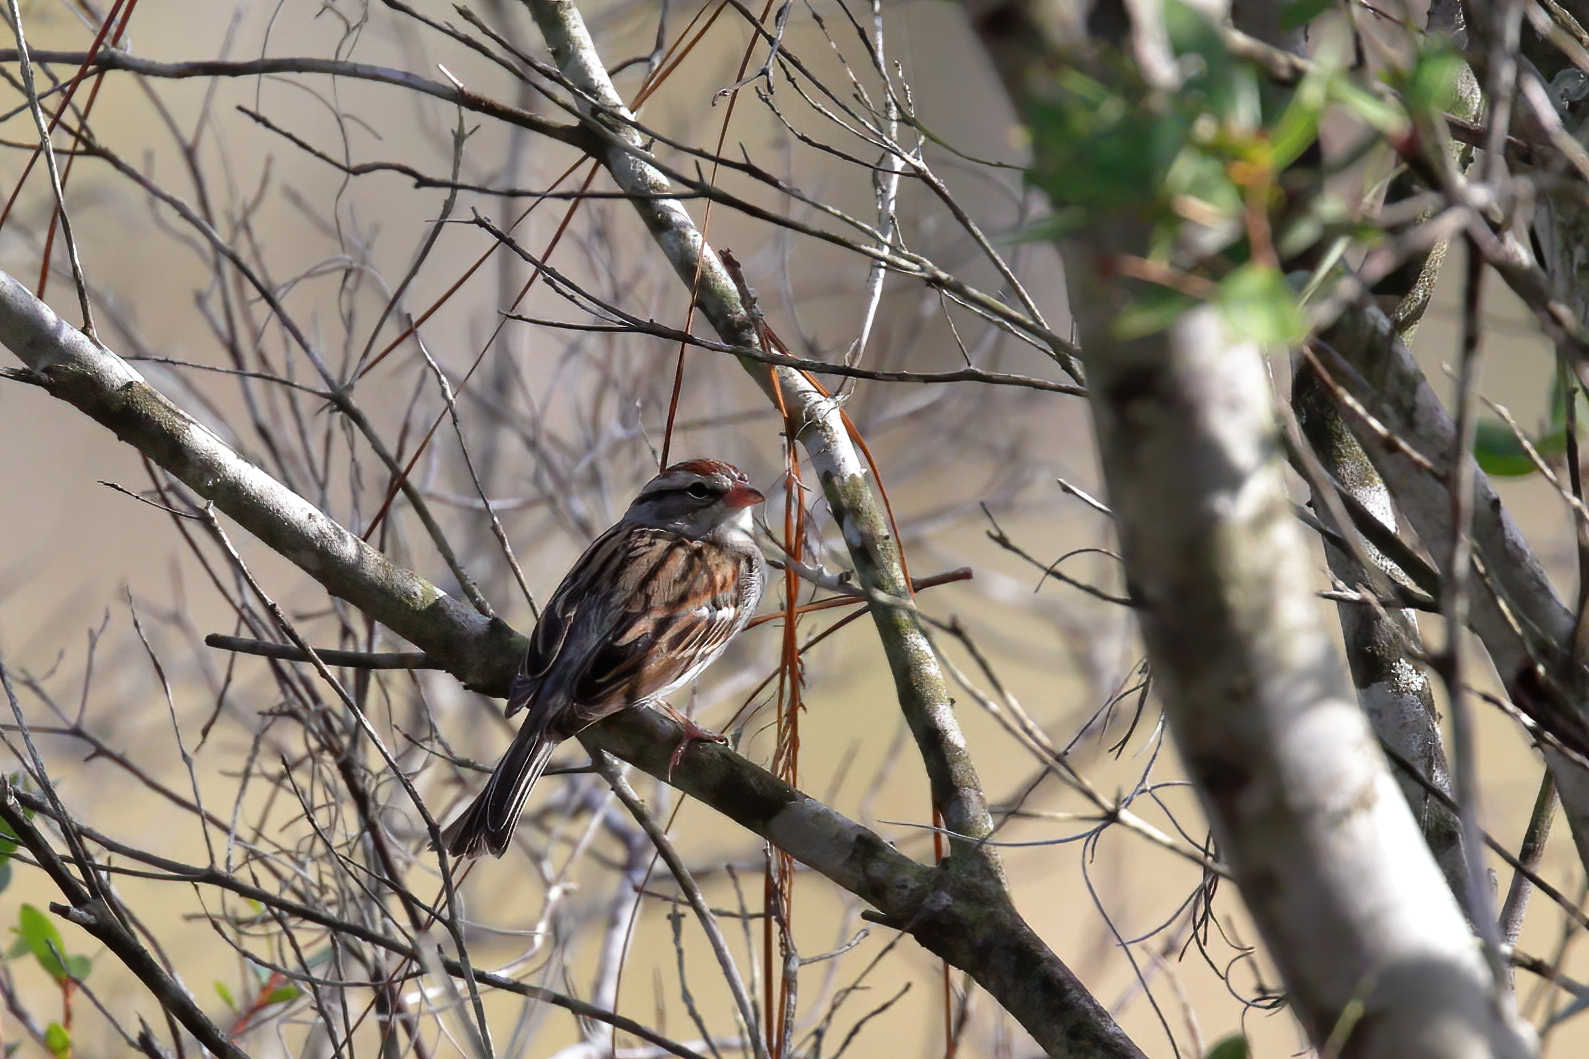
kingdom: Animalia
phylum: Chordata
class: Aves
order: Passeriformes
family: Passerellidae
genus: Spizella
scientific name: Spizella passerina
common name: Chipping sparrow
